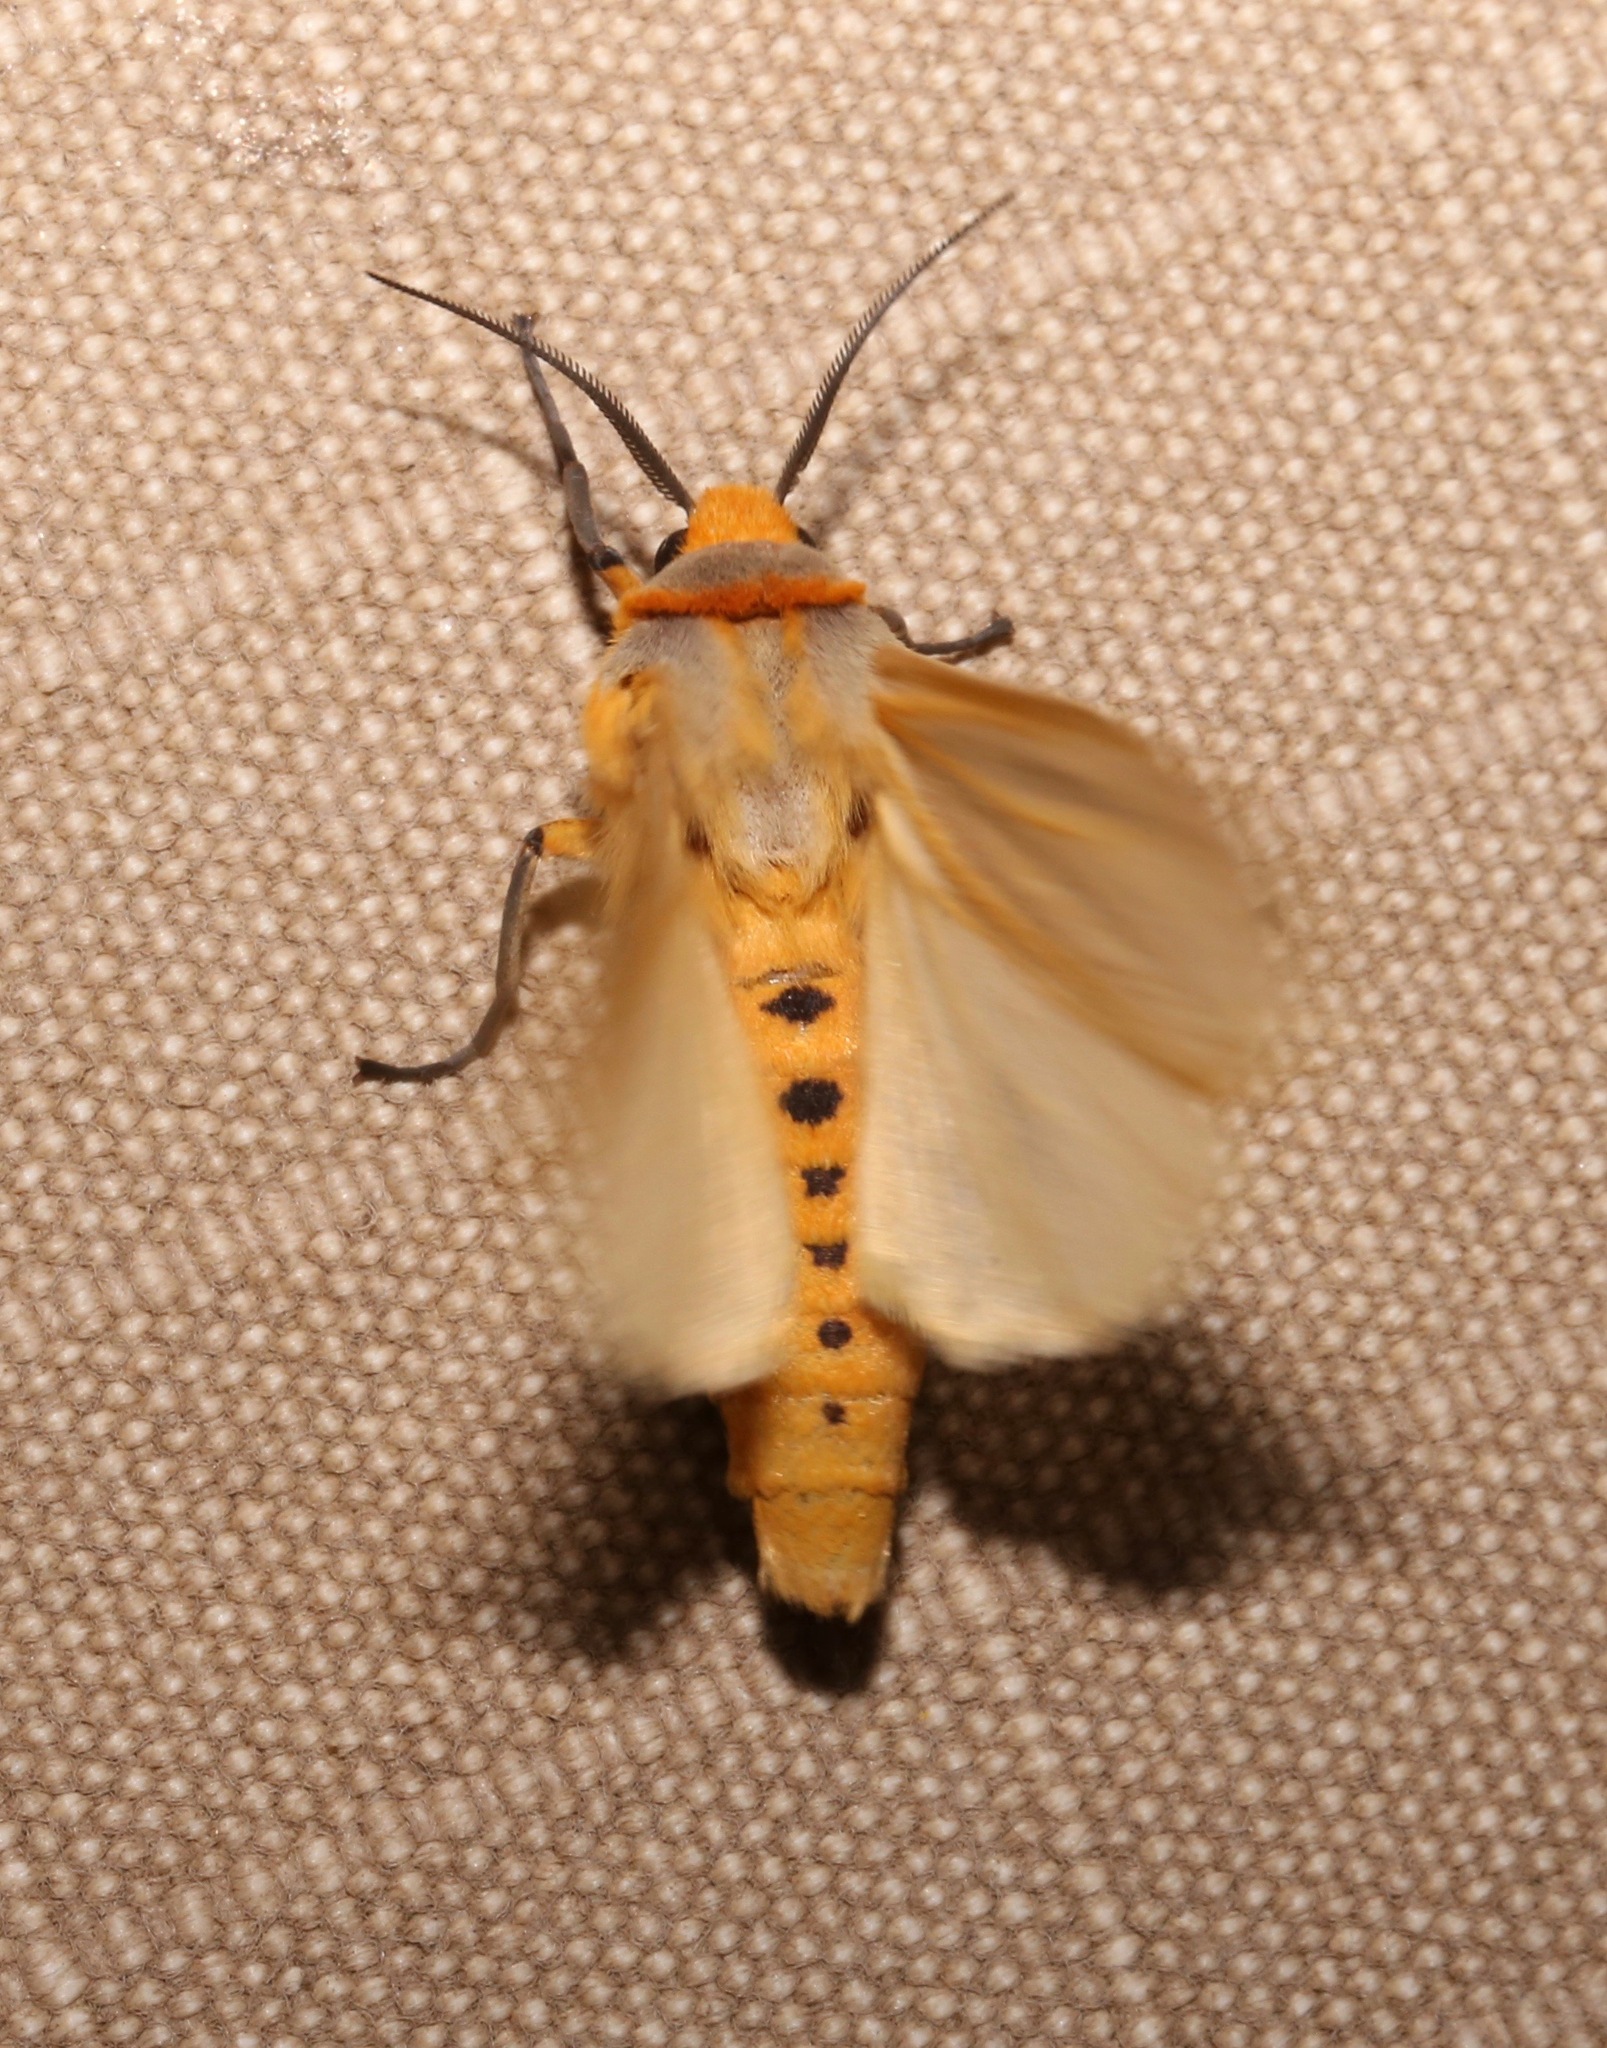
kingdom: Animalia
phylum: Arthropoda
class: Insecta
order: Lepidoptera
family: Erebidae
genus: Afromurzinia
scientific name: Afromurzinia lutescens
